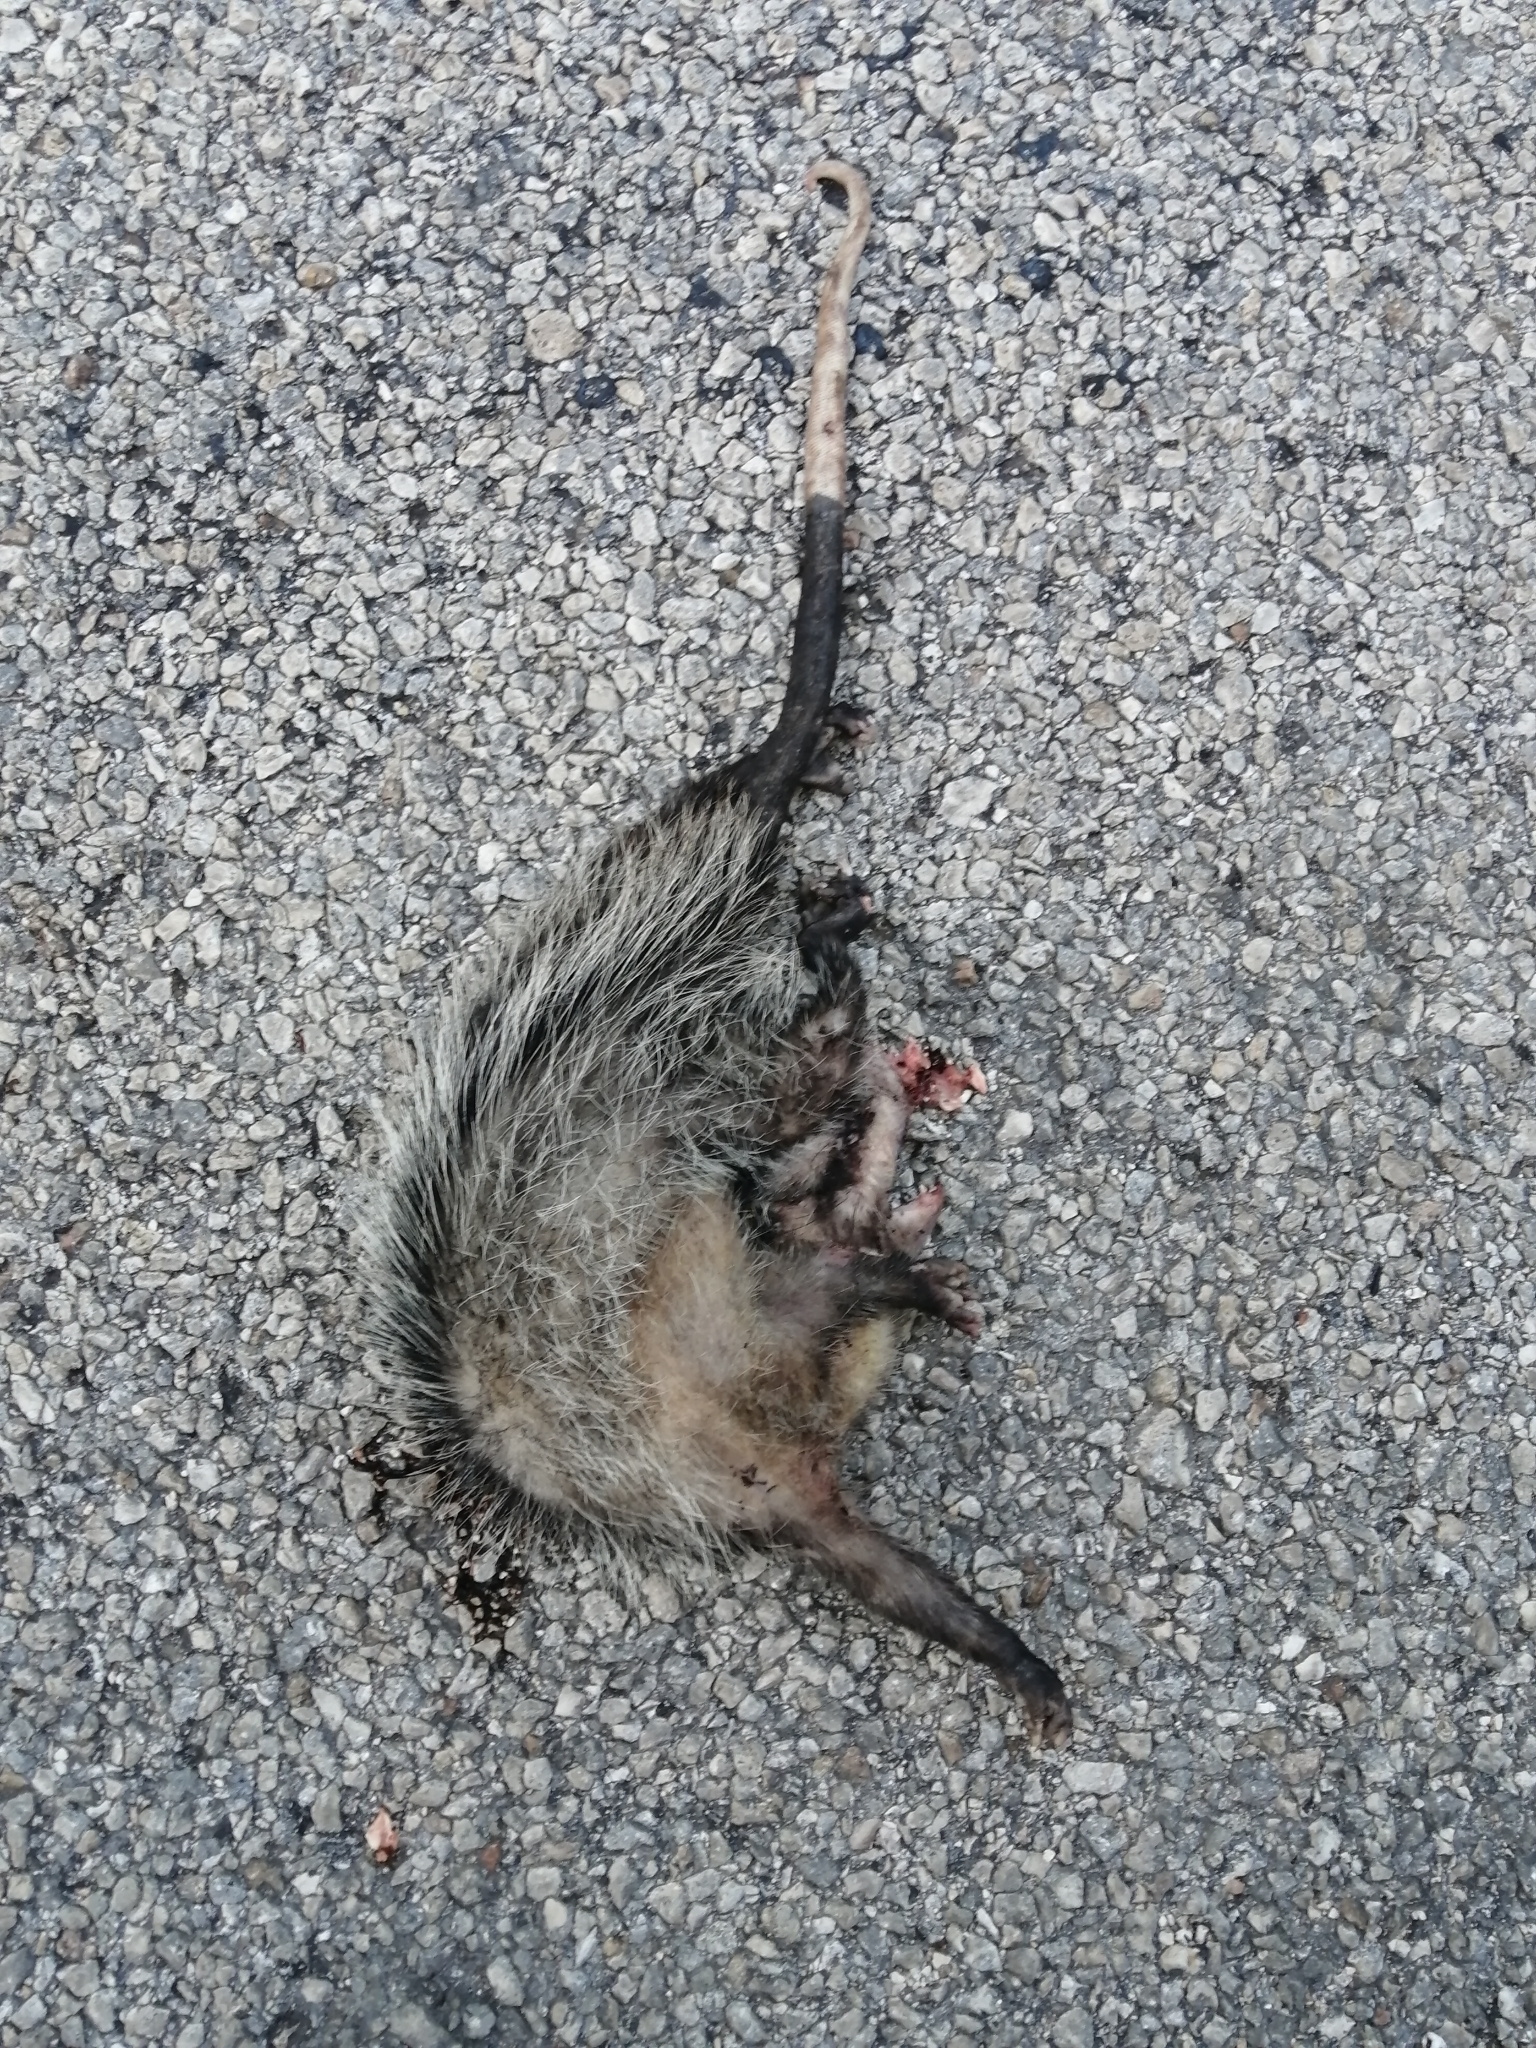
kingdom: Animalia
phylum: Chordata
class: Mammalia
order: Didelphimorphia
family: Didelphidae
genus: Didelphis
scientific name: Didelphis
